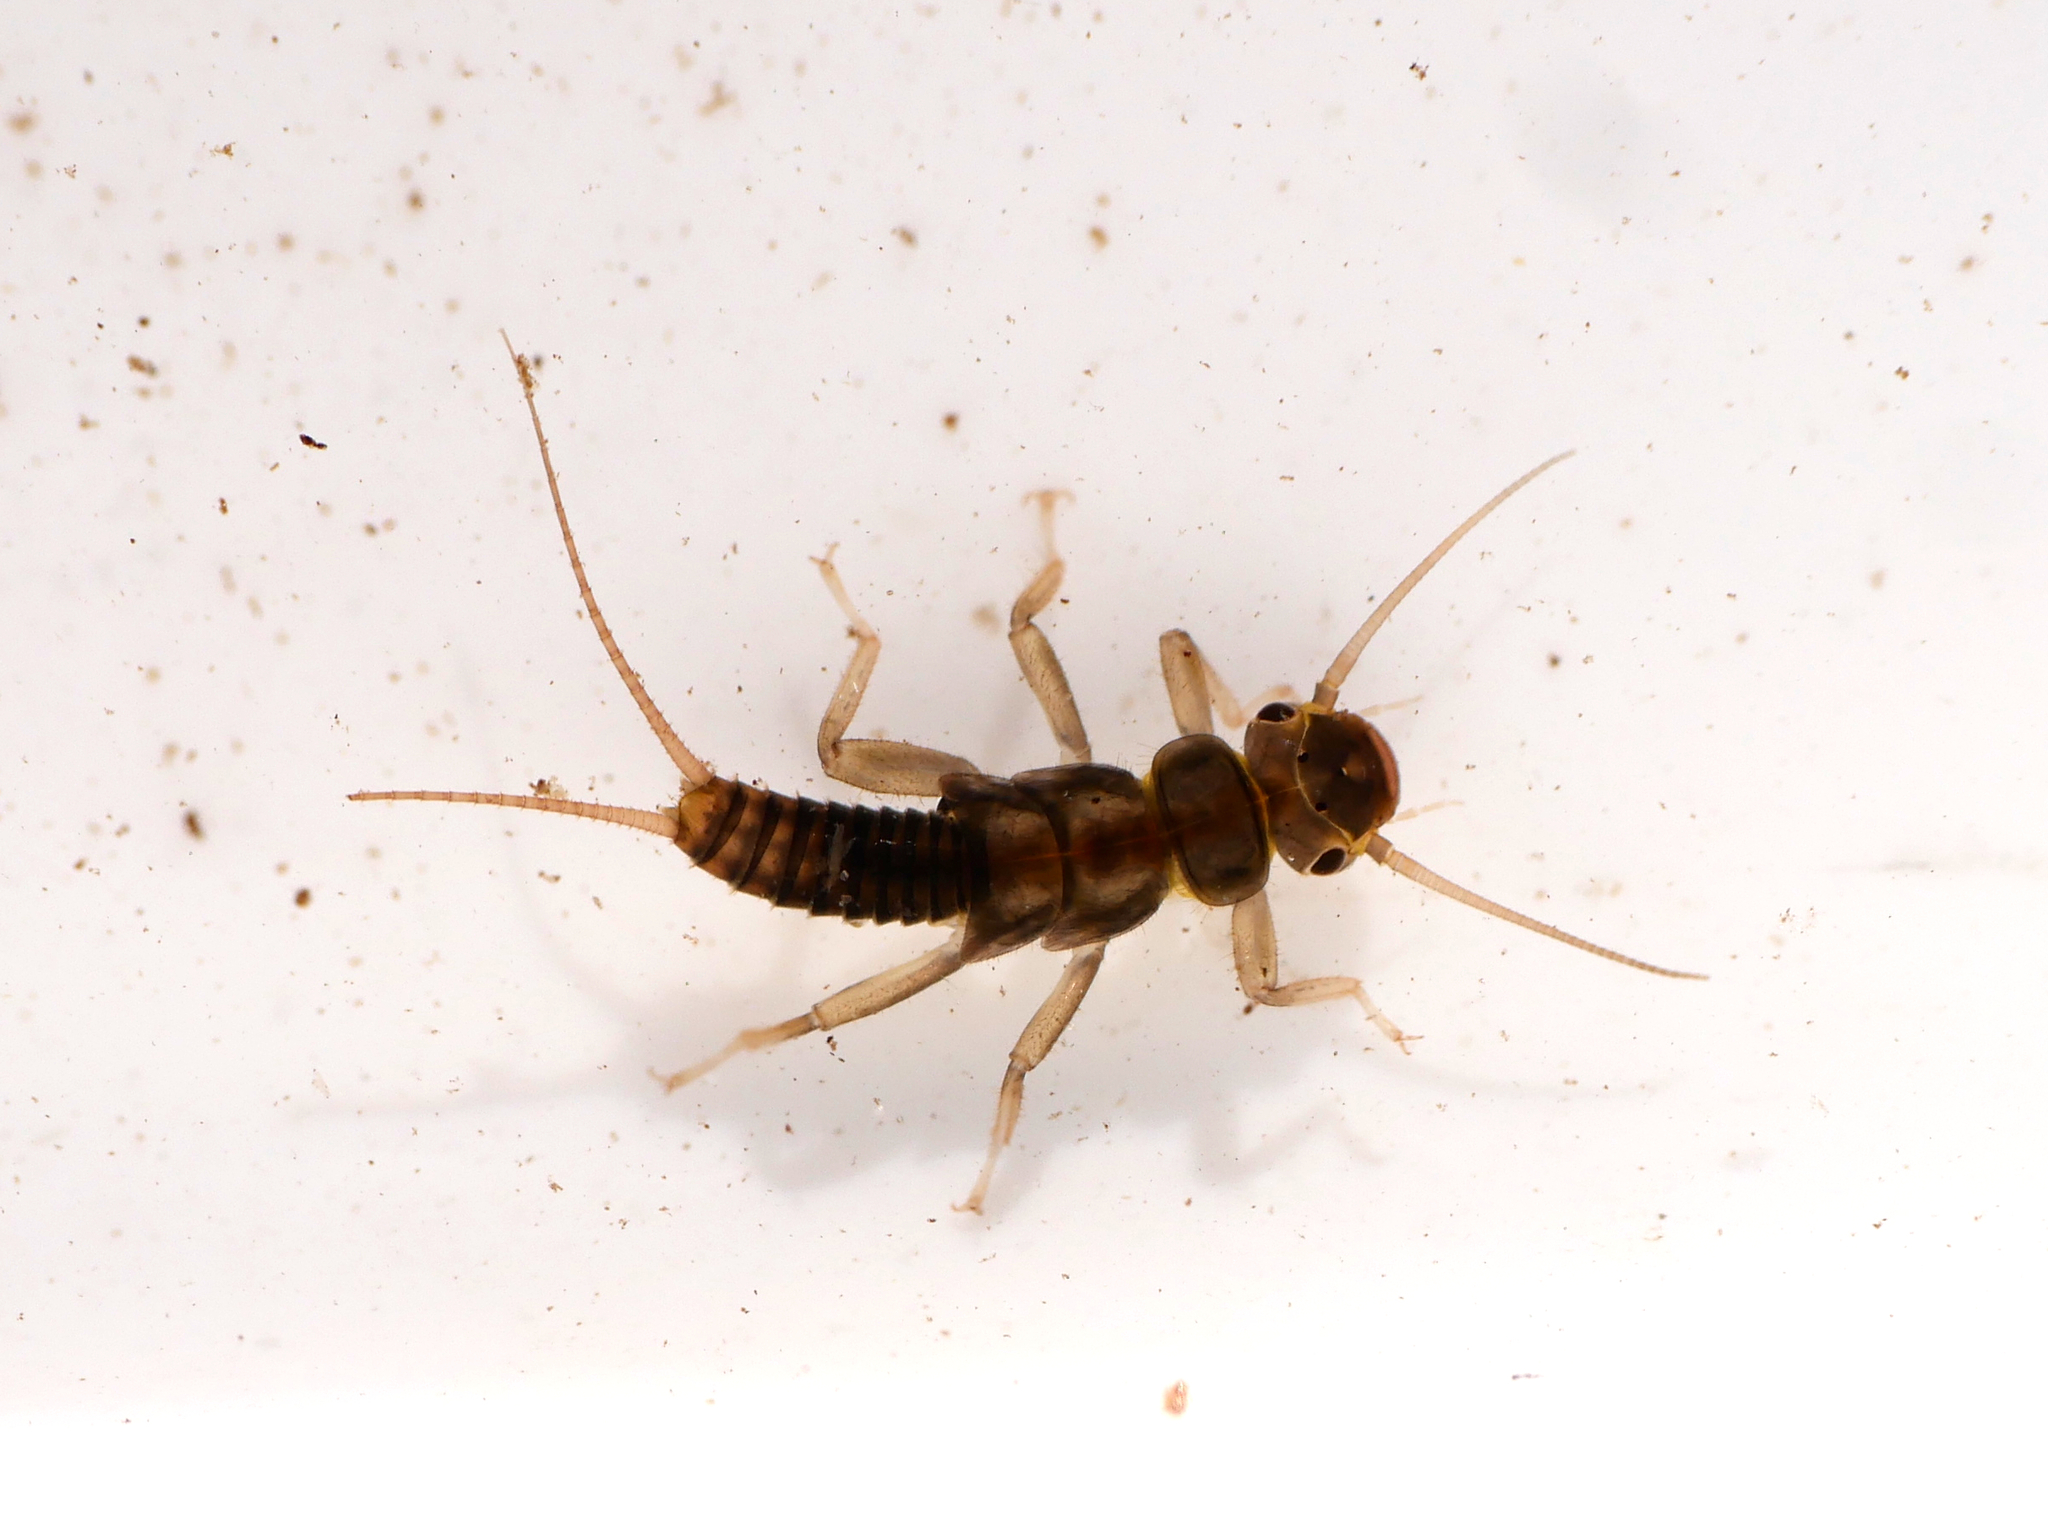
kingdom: Animalia
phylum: Arthropoda
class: Insecta
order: Plecoptera
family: Perlodidae
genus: Isoperla
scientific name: Isoperla grammatica
